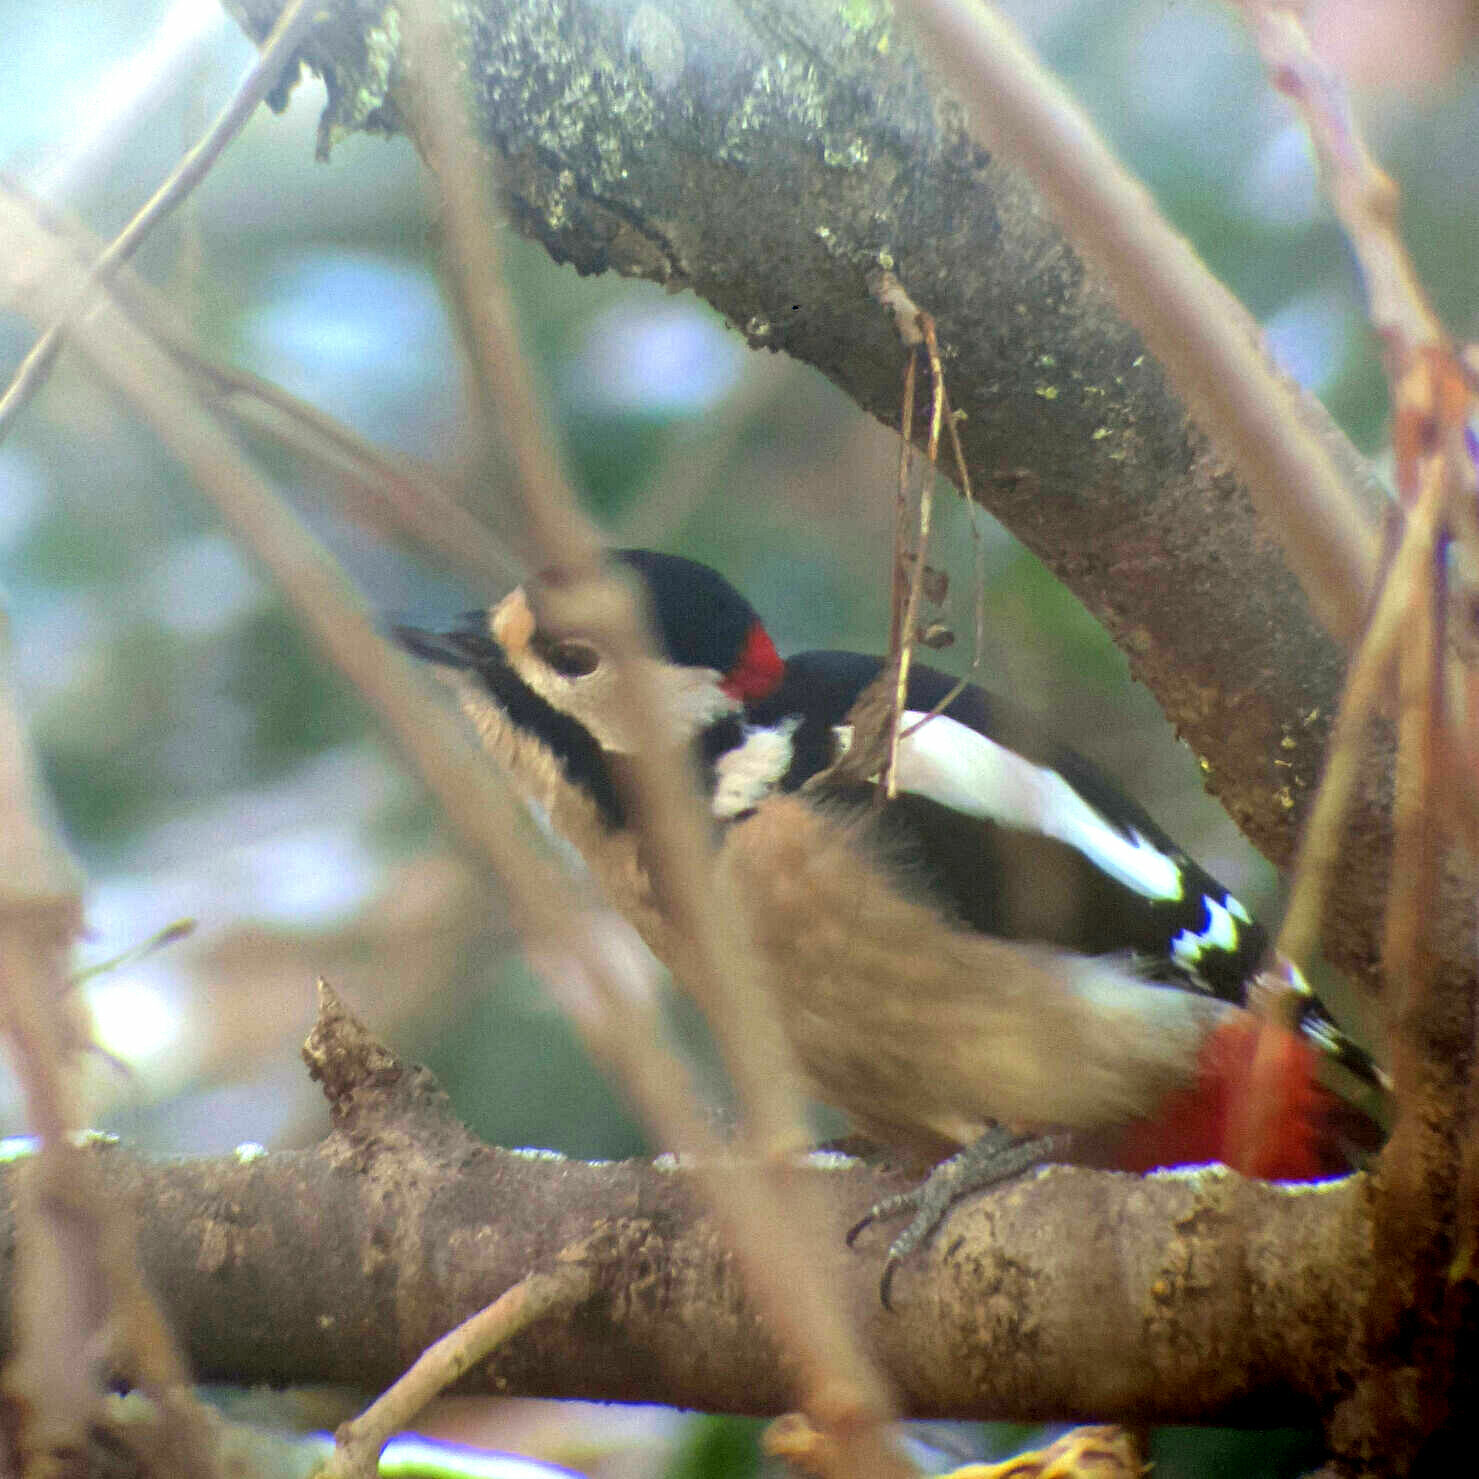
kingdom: Animalia
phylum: Chordata
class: Aves
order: Piciformes
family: Picidae
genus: Dendrocopos
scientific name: Dendrocopos major
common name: Great spotted woodpecker
